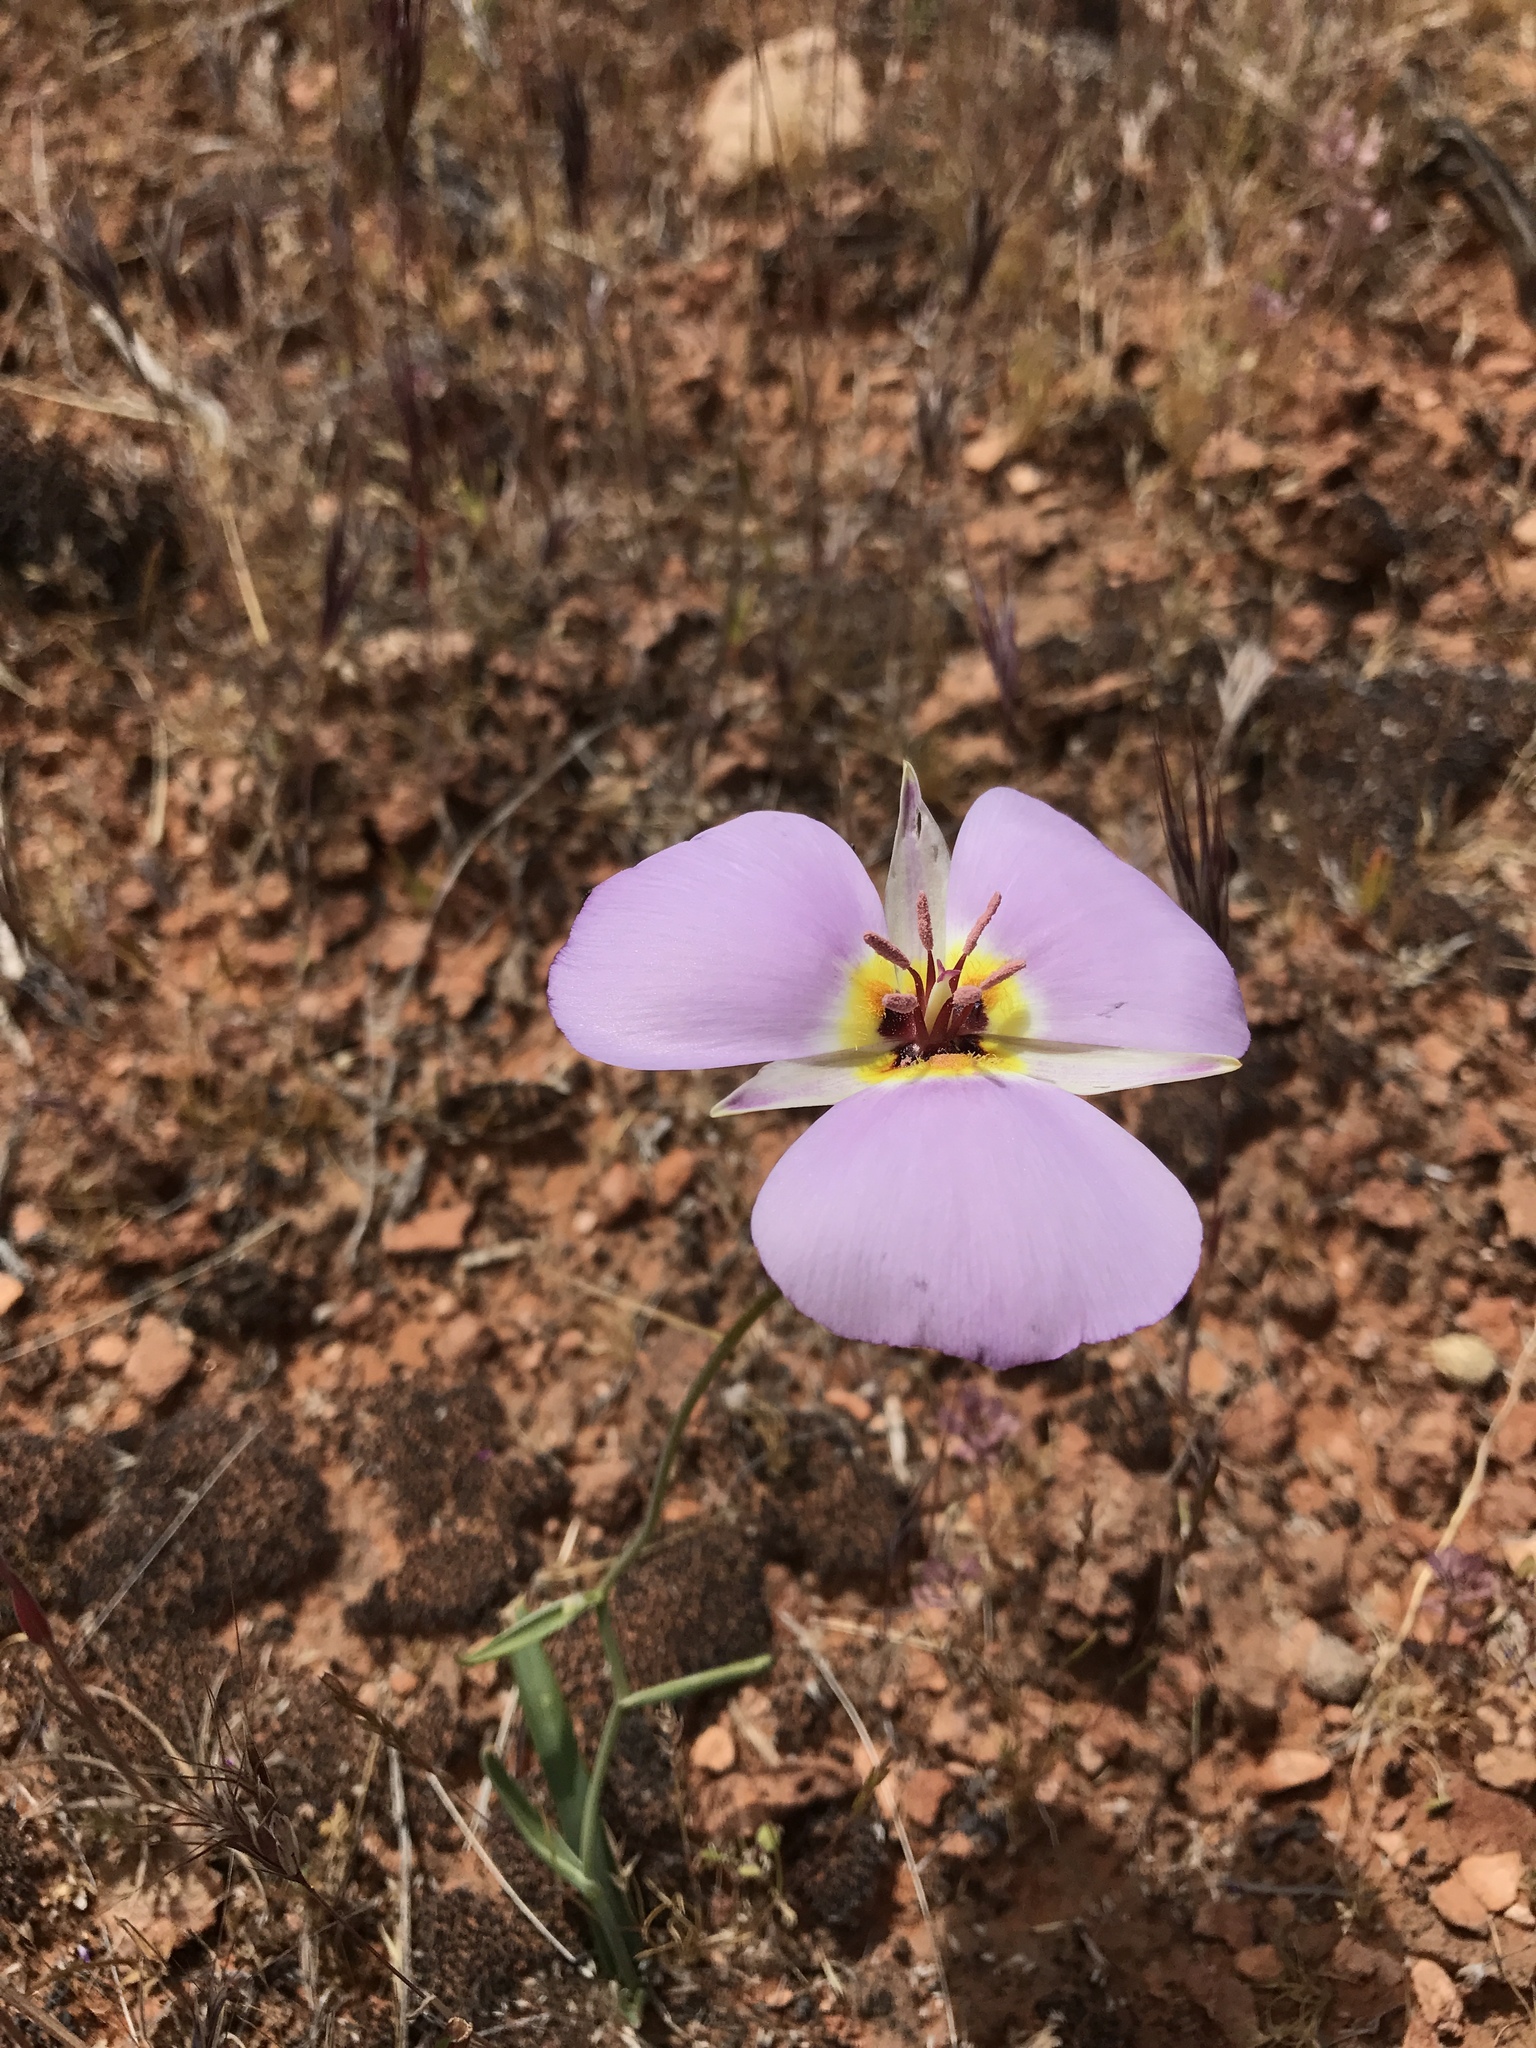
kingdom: Plantae
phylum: Tracheophyta
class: Liliopsida
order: Liliales
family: Liliaceae
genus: Calochortus
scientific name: Calochortus flexuosus
